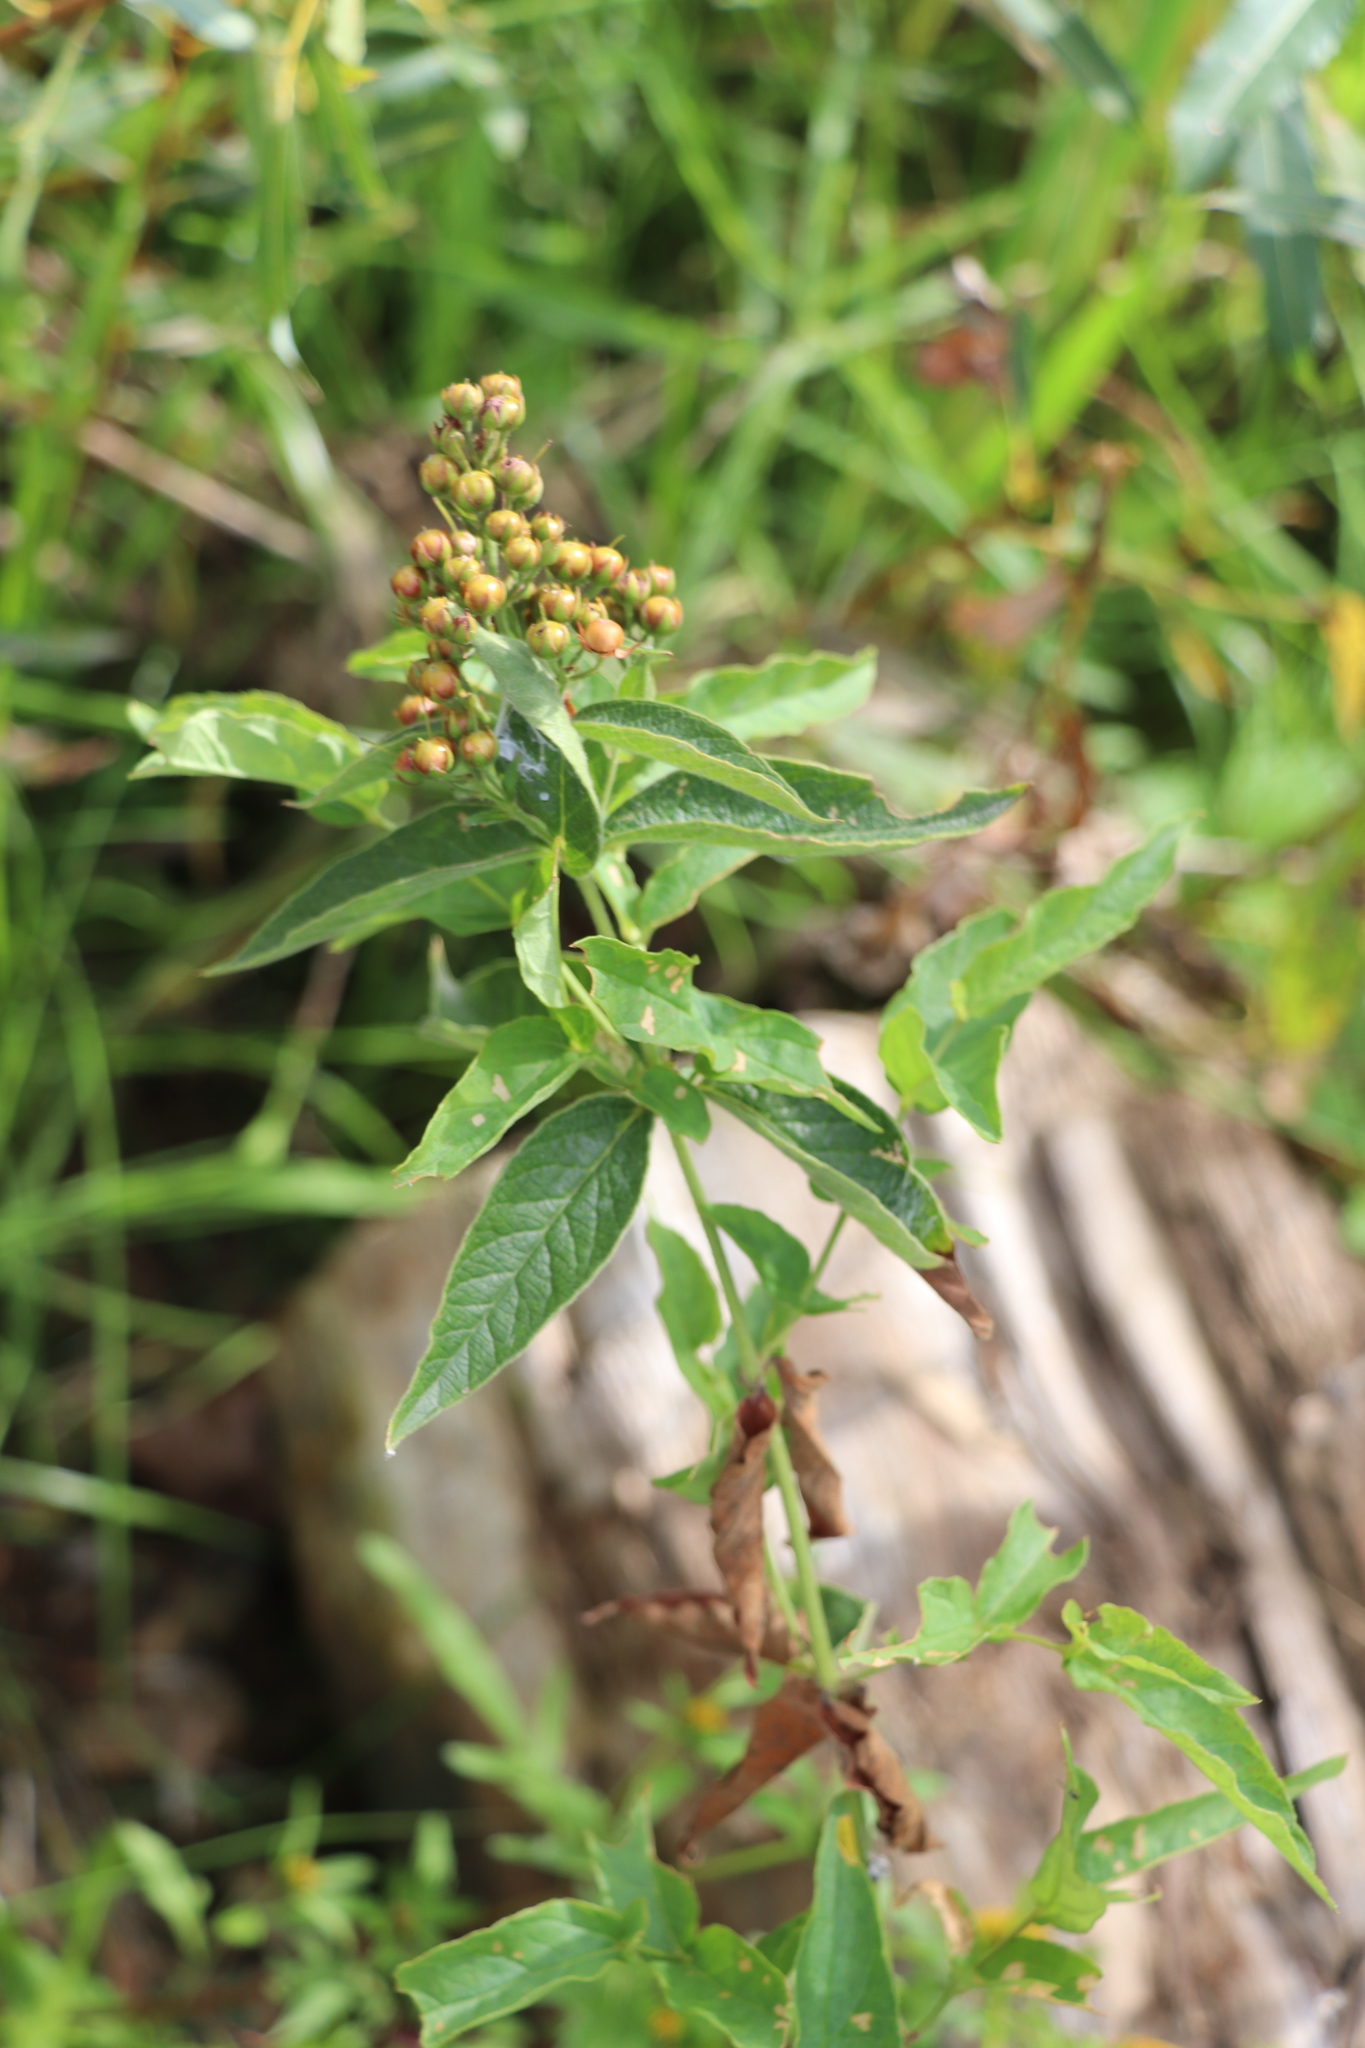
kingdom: Plantae
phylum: Tracheophyta
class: Magnoliopsida
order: Ericales
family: Primulaceae
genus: Lysimachia
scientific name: Lysimachia vulgaris
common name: Yellow loosestrife
